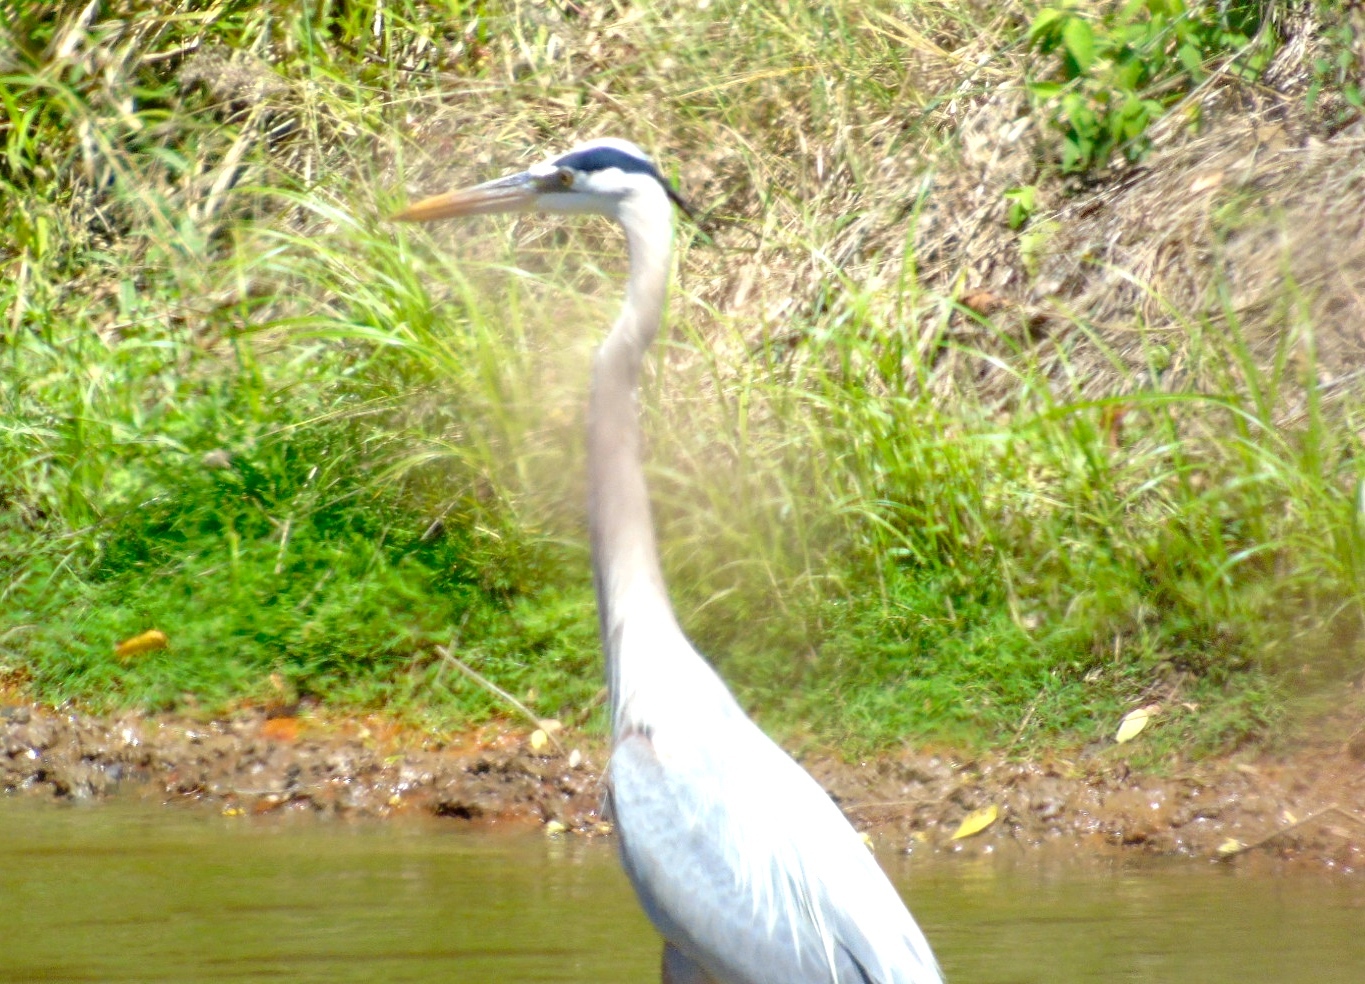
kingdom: Animalia
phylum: Chordata
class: Aves
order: Pelecaniformes
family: Ardeidae
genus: Ardea
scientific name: Ardea herodias
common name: Great blue heron
